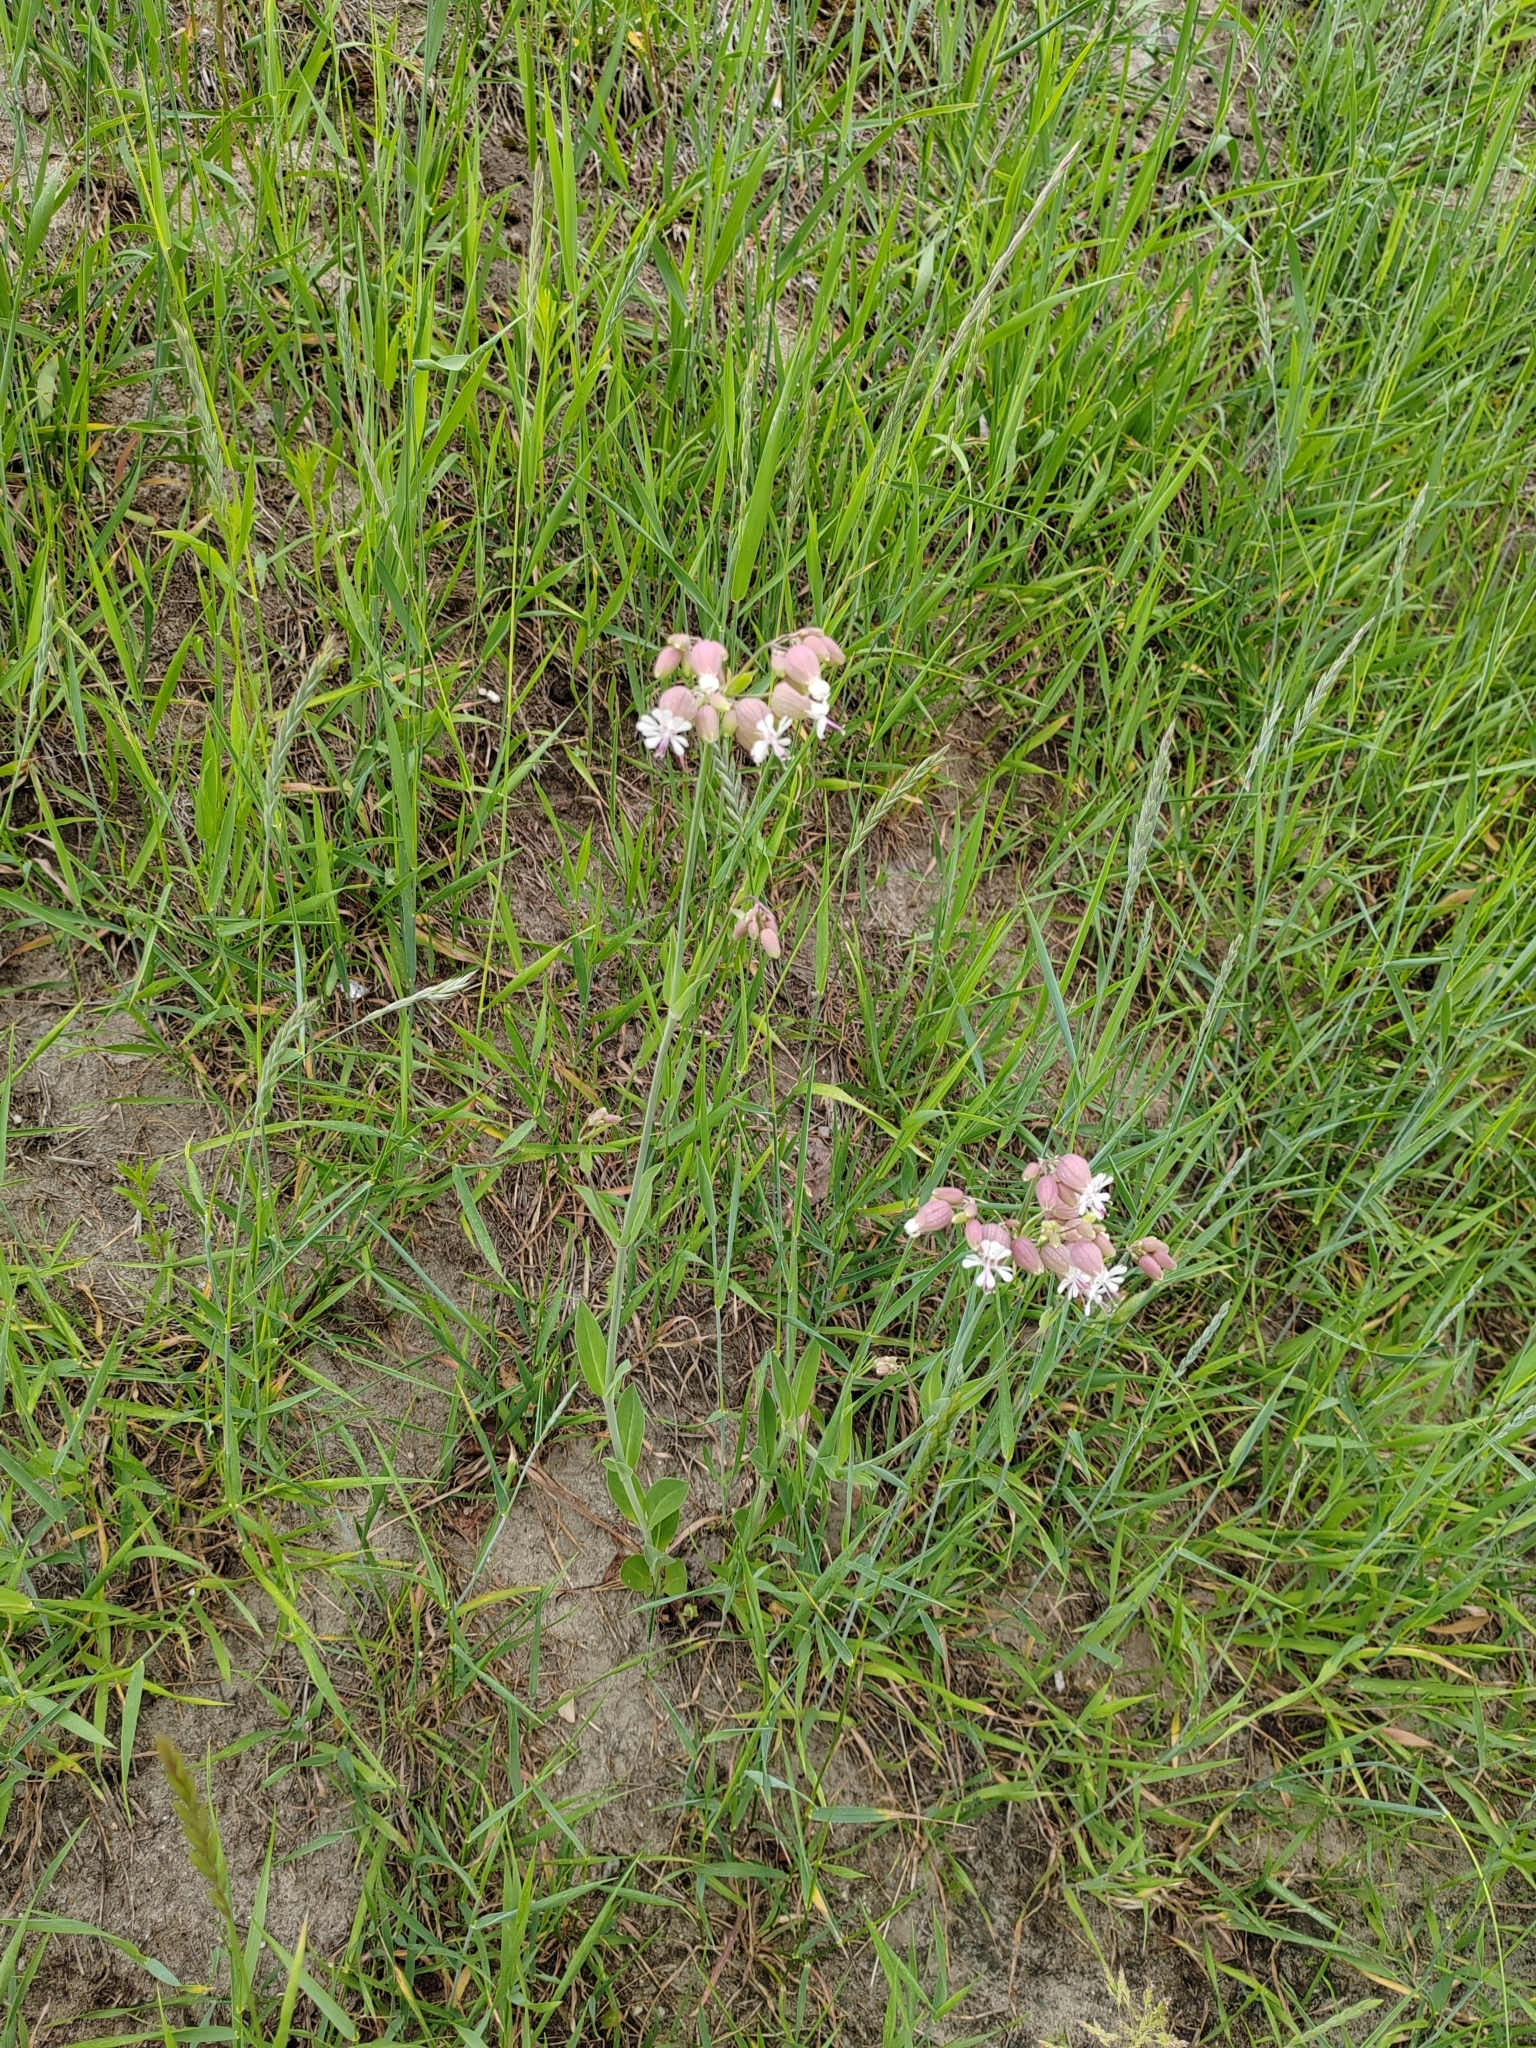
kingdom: Plantae
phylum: Tracheophyta
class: Magnoliopsida
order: Caryophyllales
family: Caryophyllaceae
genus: Silene
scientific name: Silene vulgaris
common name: Bladder campion
